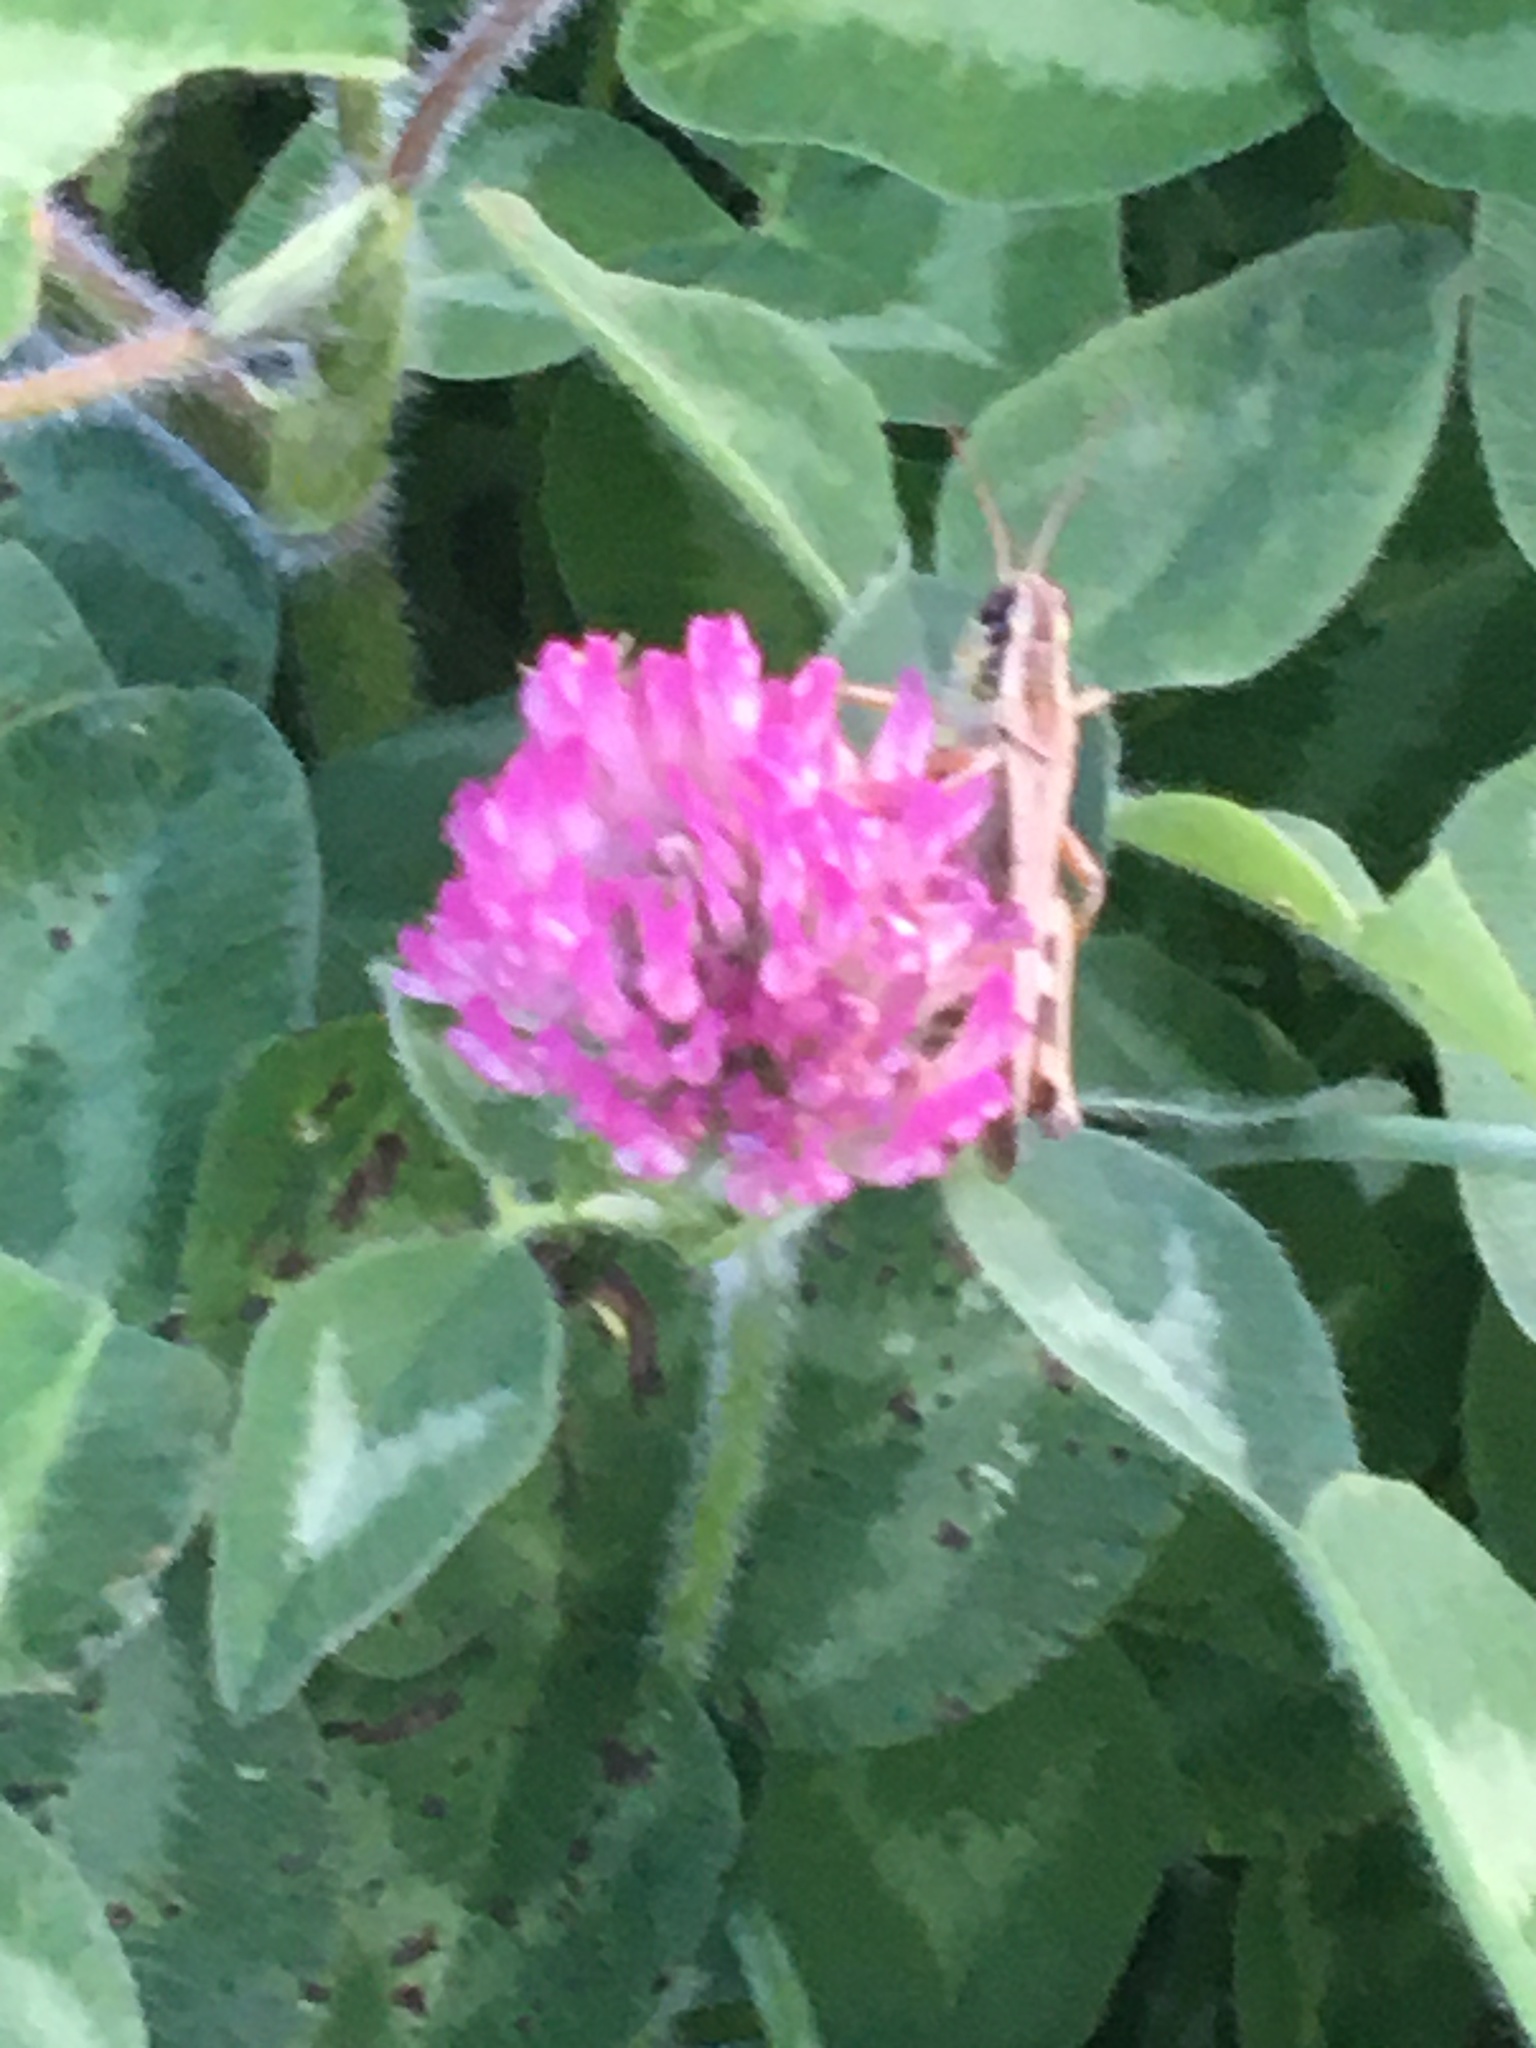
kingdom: Plantae
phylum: Tracheophyta
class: Magnoliopsida
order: Fabales
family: Fabaceae
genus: Trifolium
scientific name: Trifolium pratense
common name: Red clover
